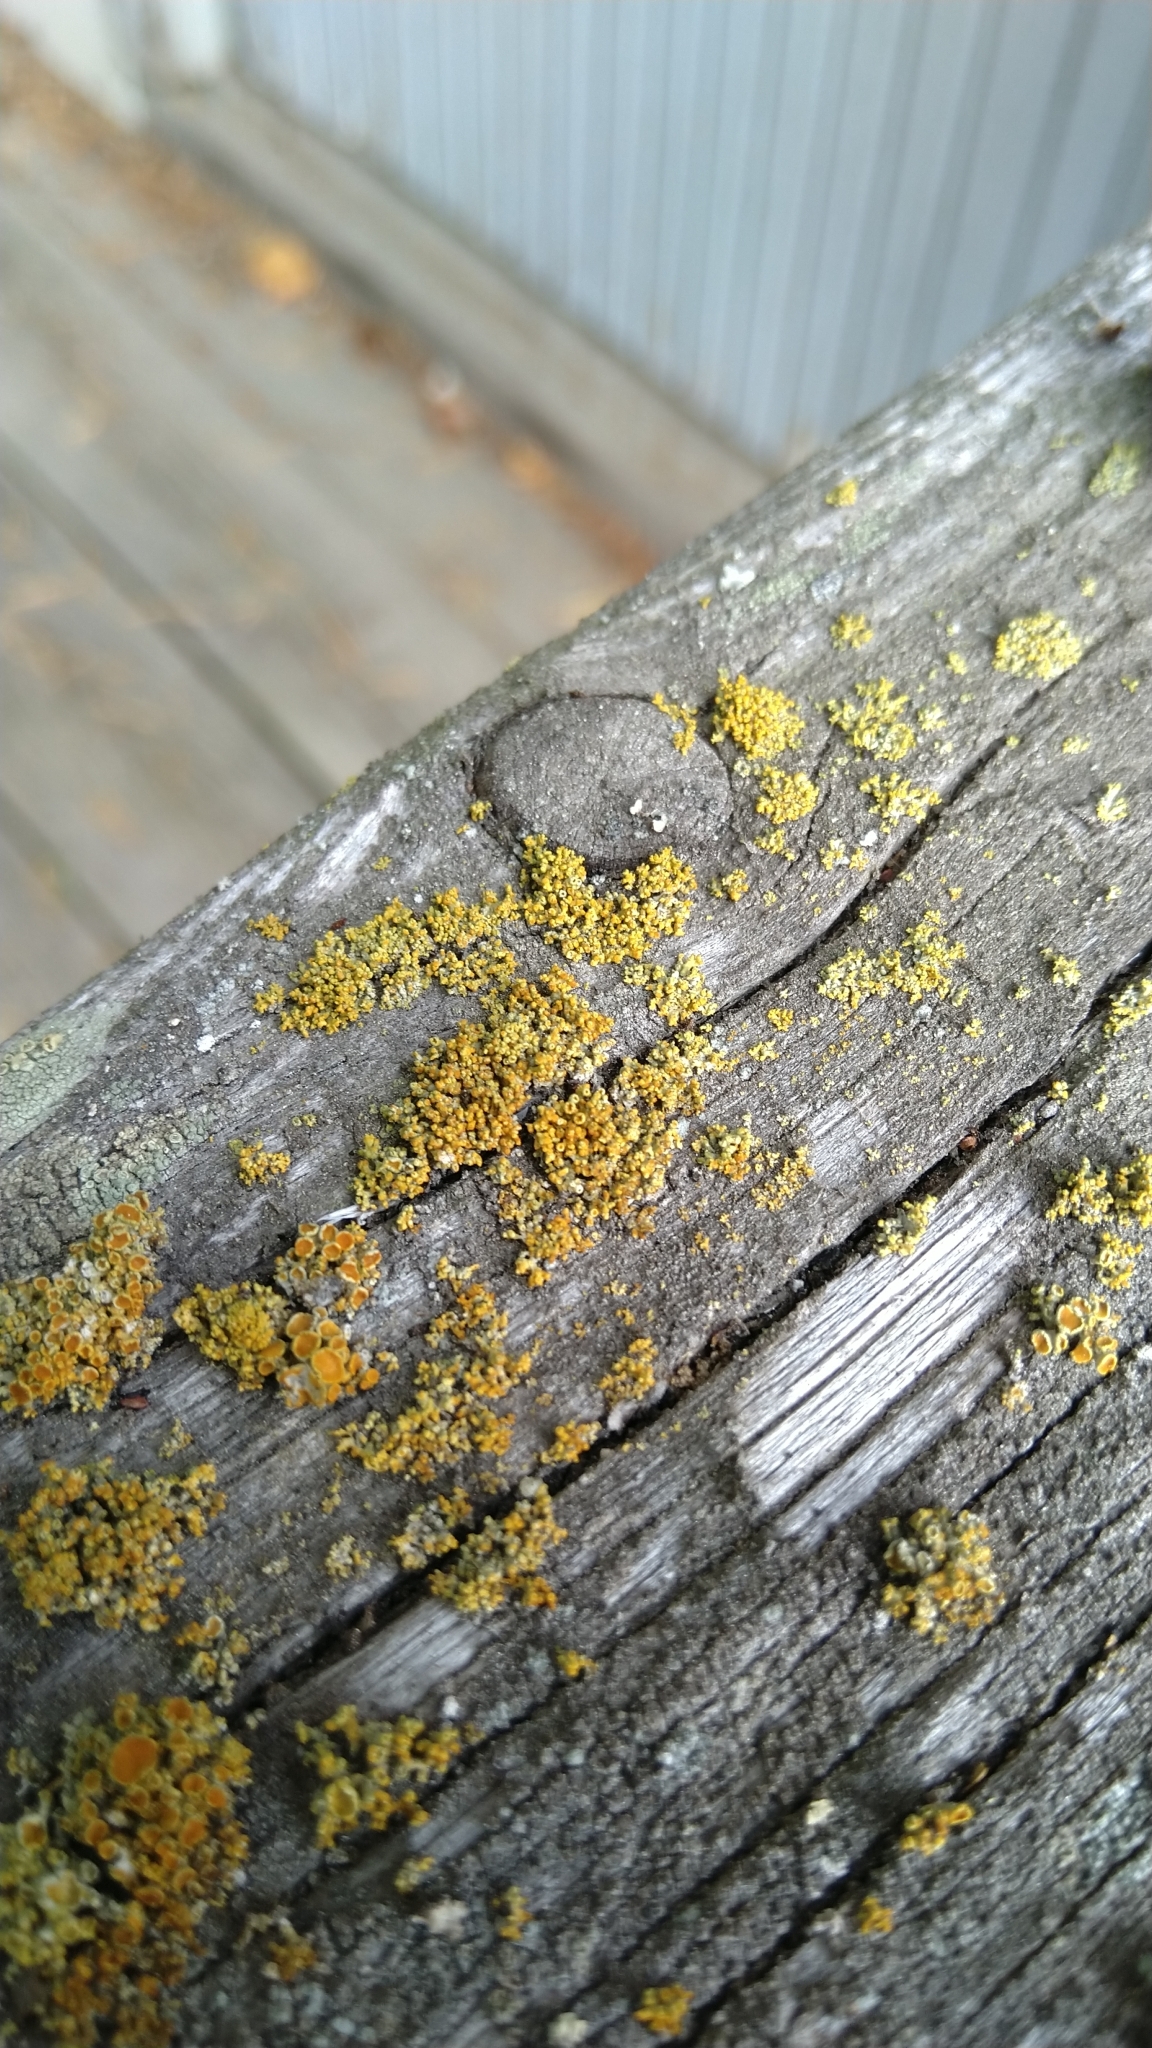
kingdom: Fungi
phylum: Ascomycota
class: Lecanoromycetes
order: Teloschistales
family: Teloschistaceae
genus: Polycauliona
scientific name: Polycauliona polycarpa
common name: Pin-cushion sunburst lichen
